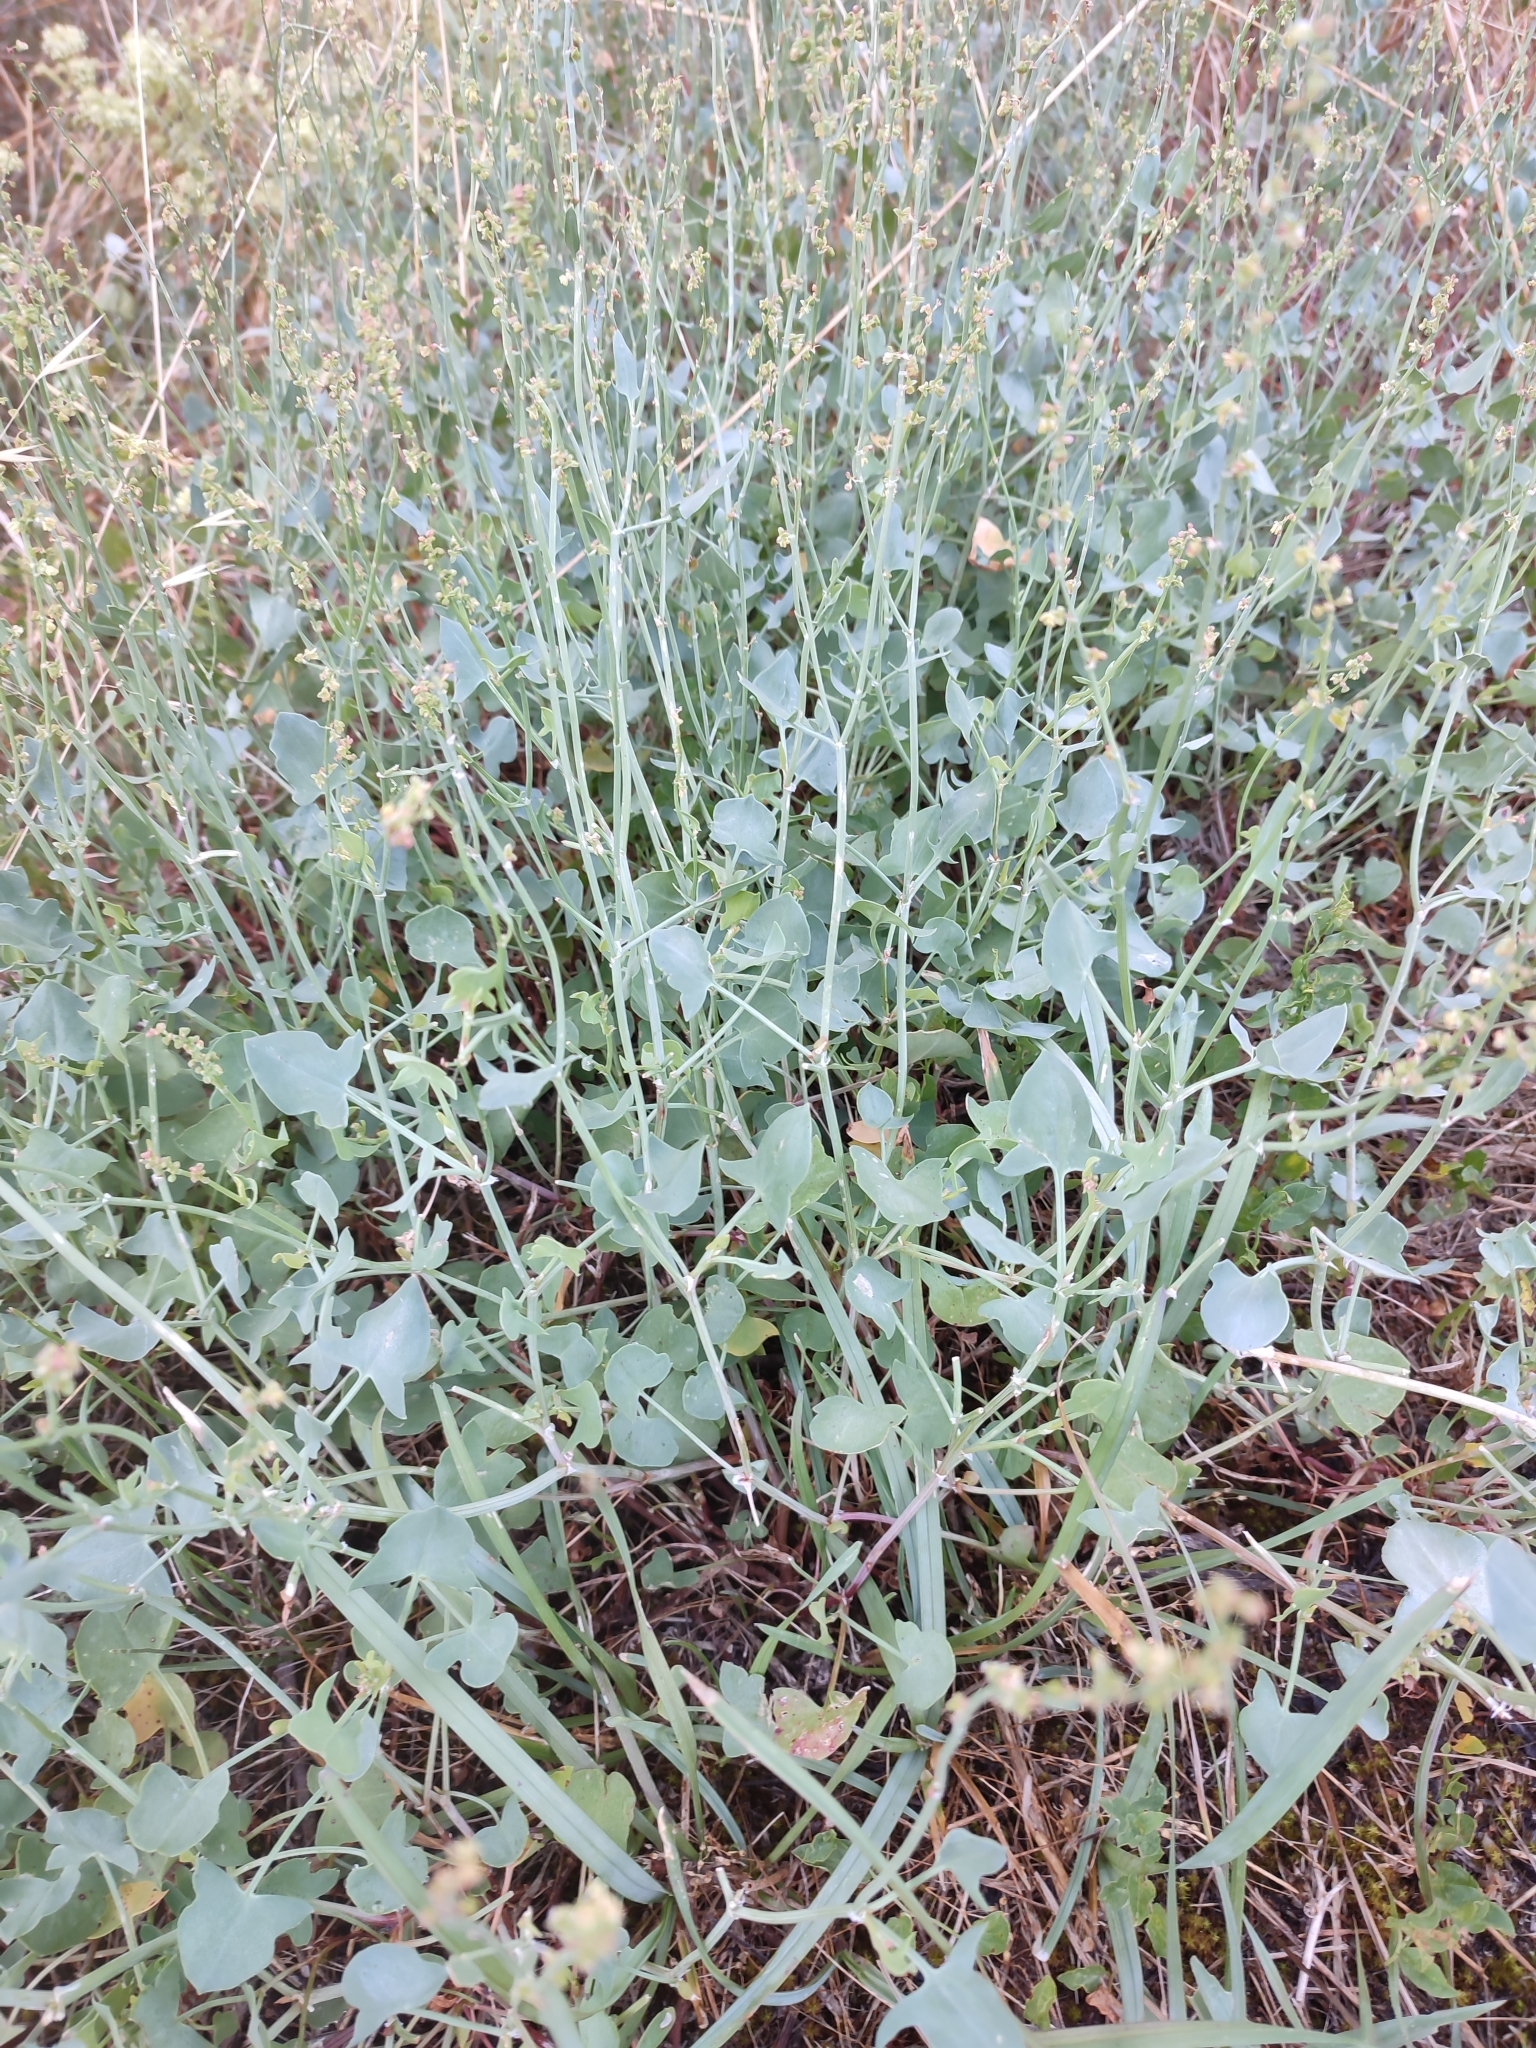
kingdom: Plantae
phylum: Tracheophyta
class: Magnoliopsida
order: Caryophyllales
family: Polygonaceae
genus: Rumex
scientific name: Rumex scutatus
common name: French sorrel
